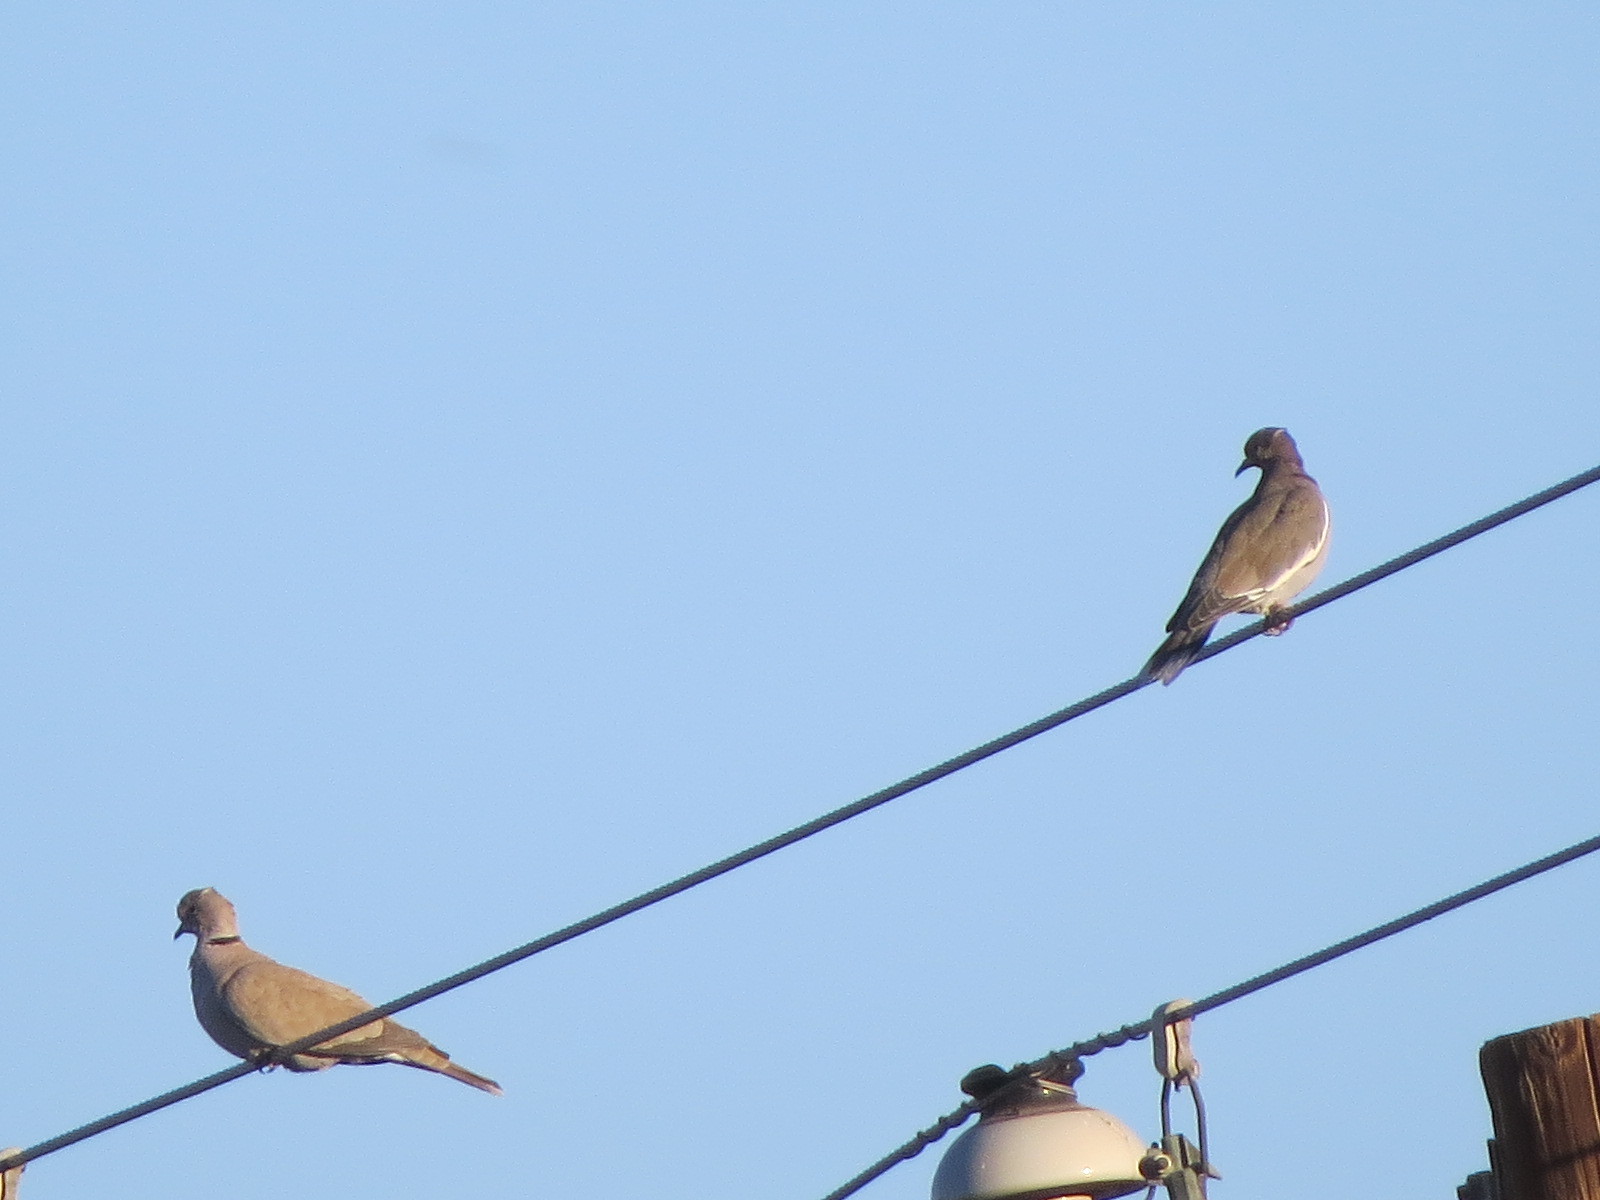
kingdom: Animalia
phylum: Chordata
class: Aves
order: Columbiformes
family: Columbidae
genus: Zenaida
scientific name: Zenaida asiatica
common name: White-winged dove
